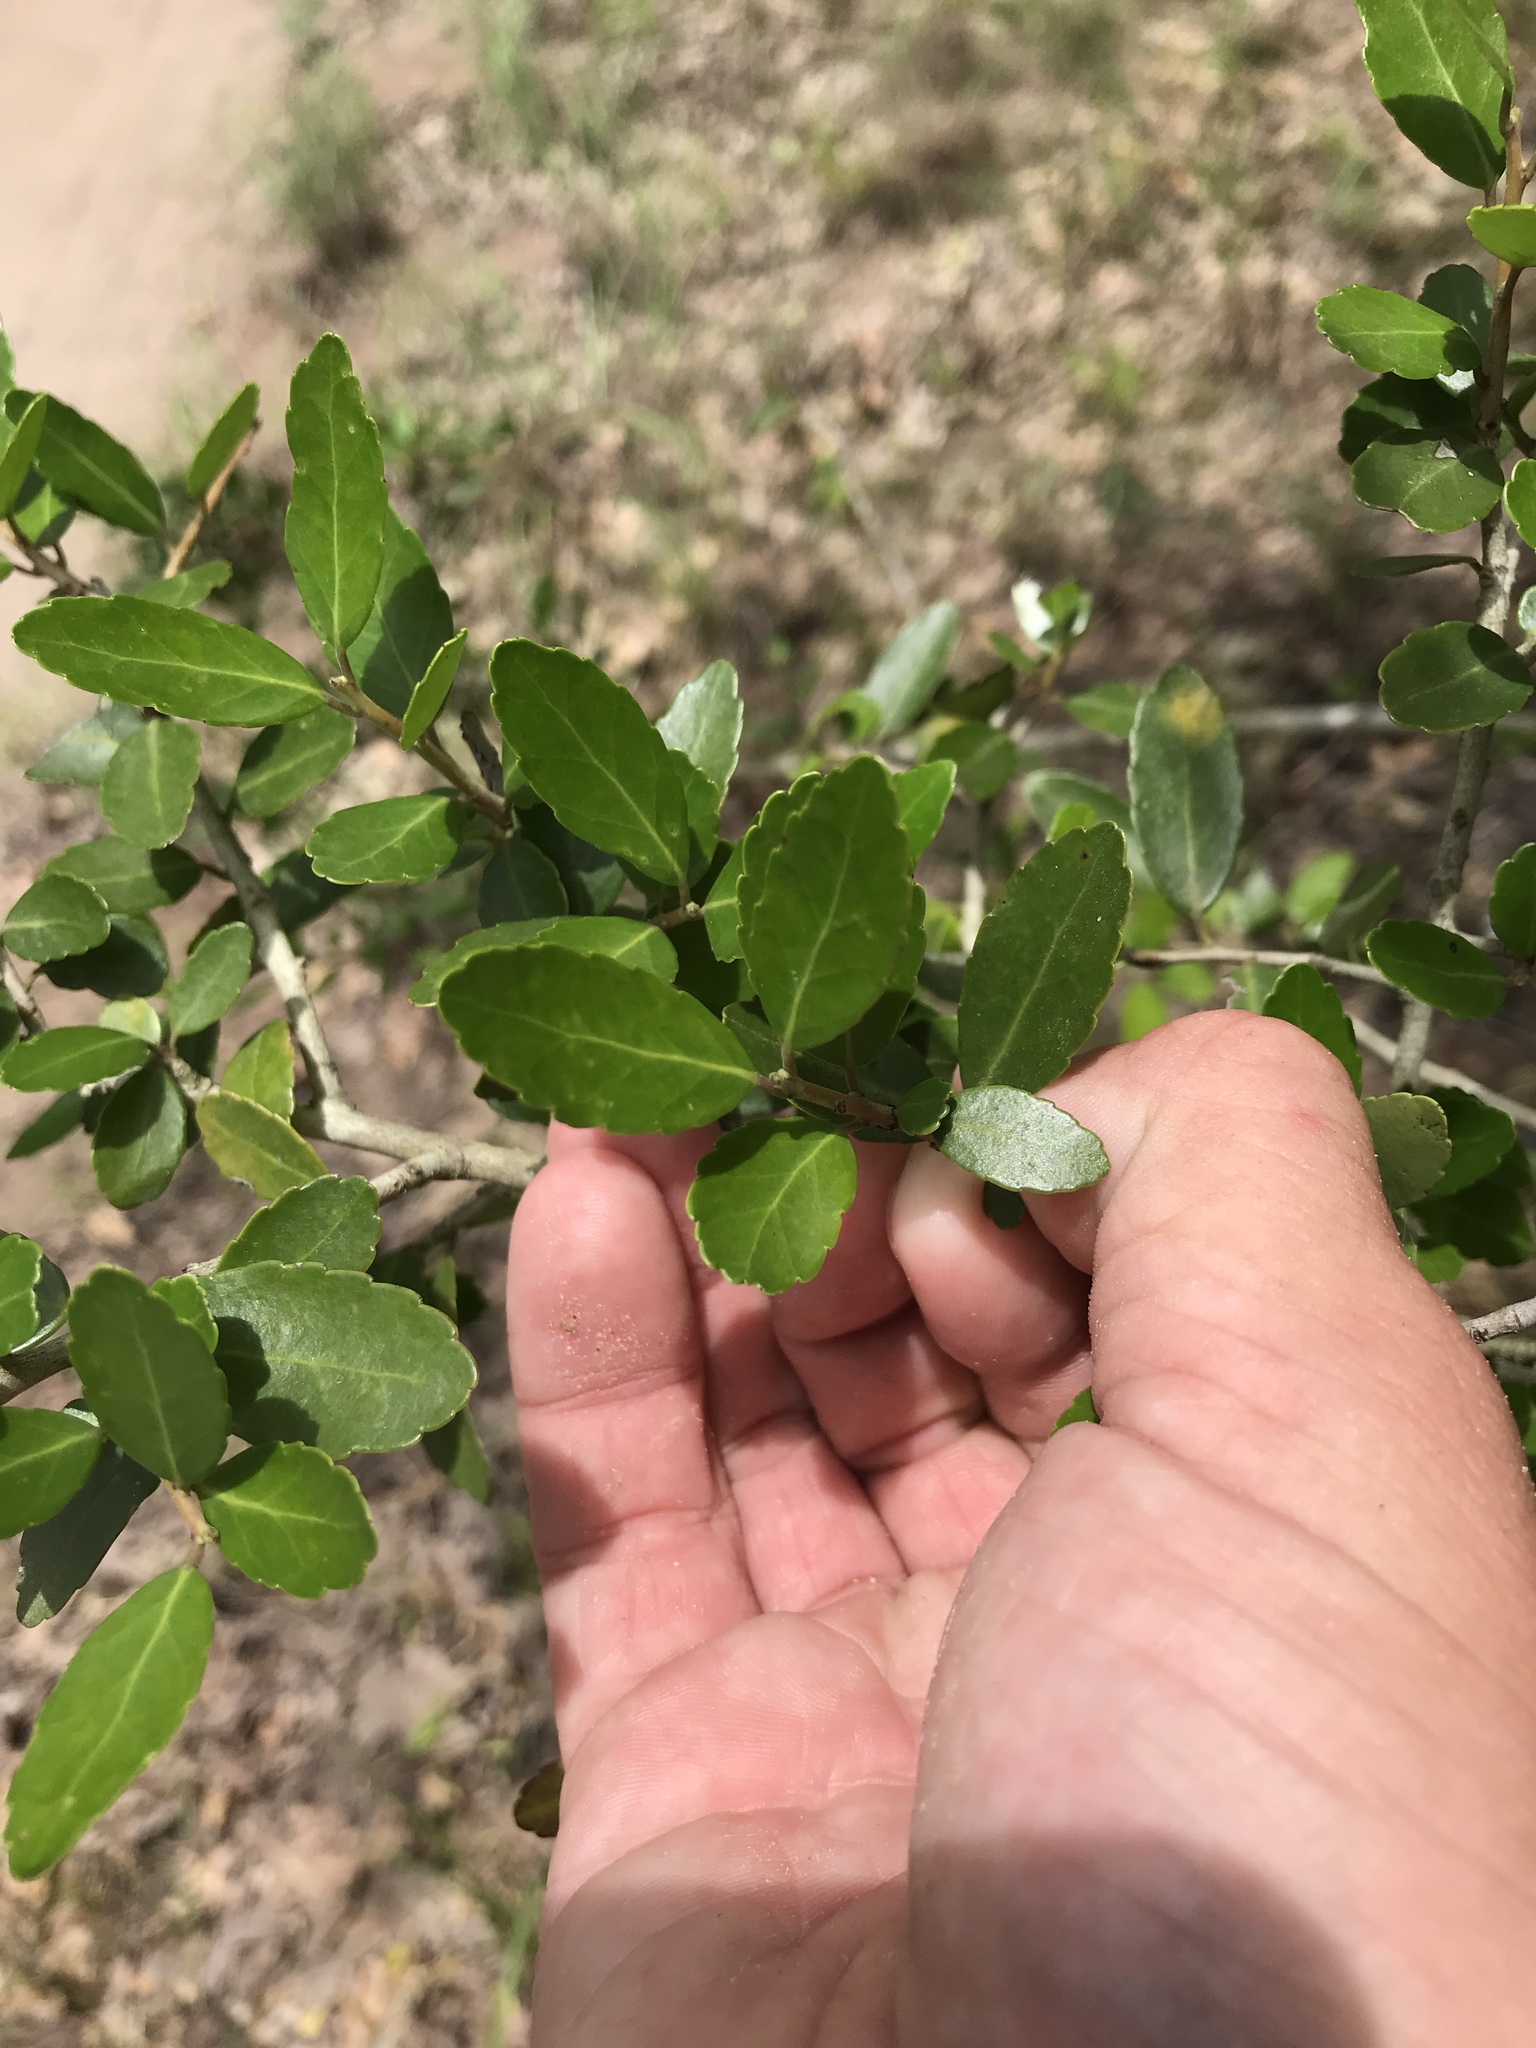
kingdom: Plantae
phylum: Tracheophyta
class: Magnoliopsida
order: Aquifoliales
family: Aquifoliaceae
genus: Ilex
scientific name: Ilex vomitoria
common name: Yaupon holly
